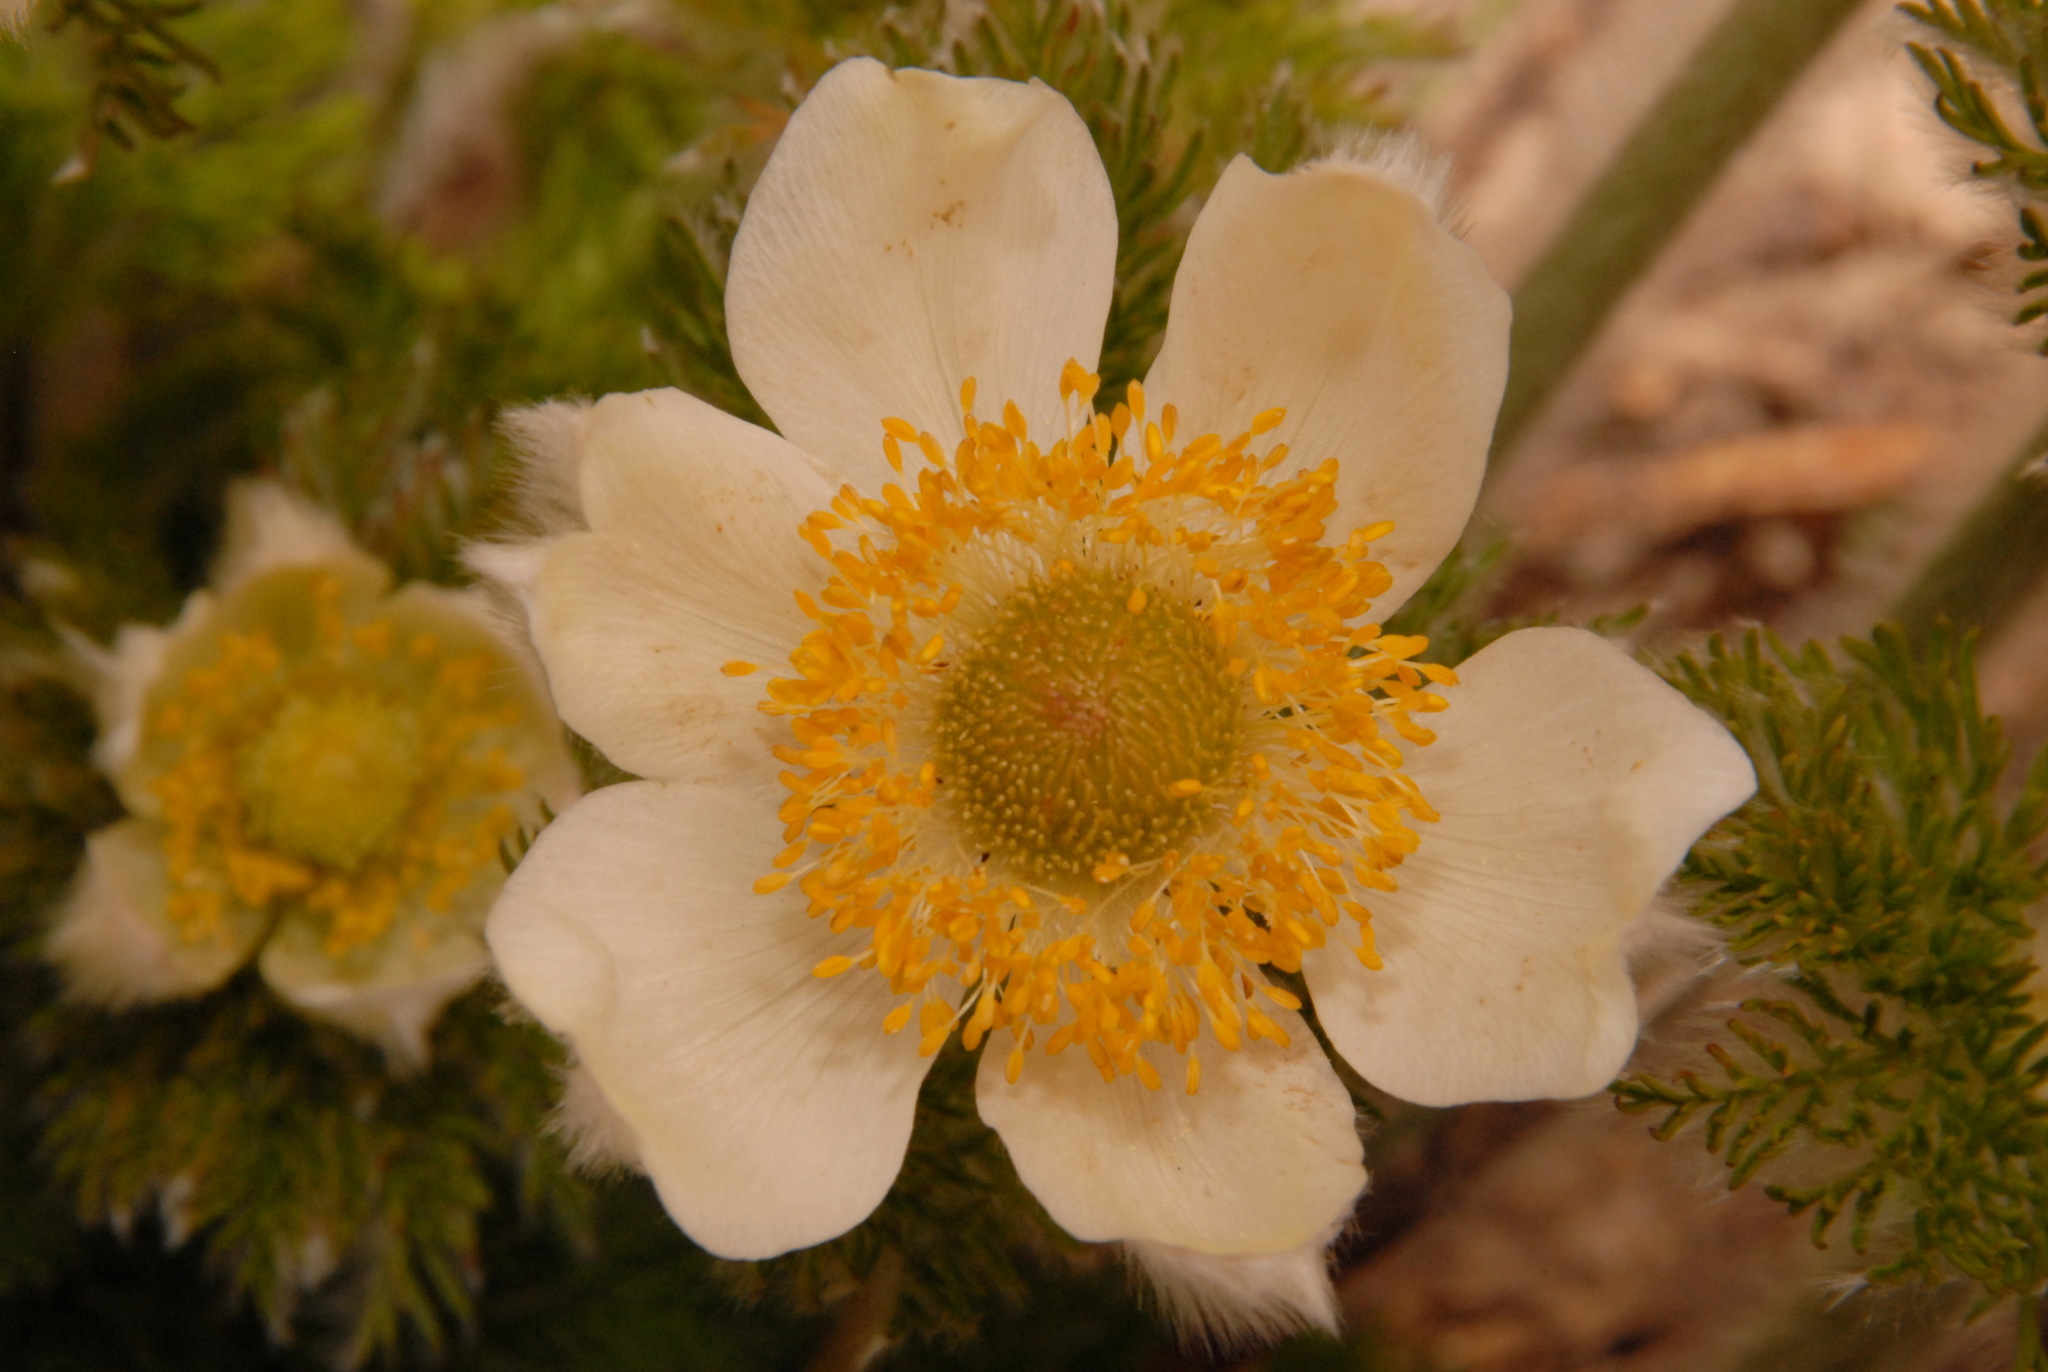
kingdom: Plantae
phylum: Tracheophyta
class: Magnoliopsida
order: Ranunculales
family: Ranunculaceae
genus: Pulsatilla
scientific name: Pulsatilla occidentalis
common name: Mountain pasqueflower
